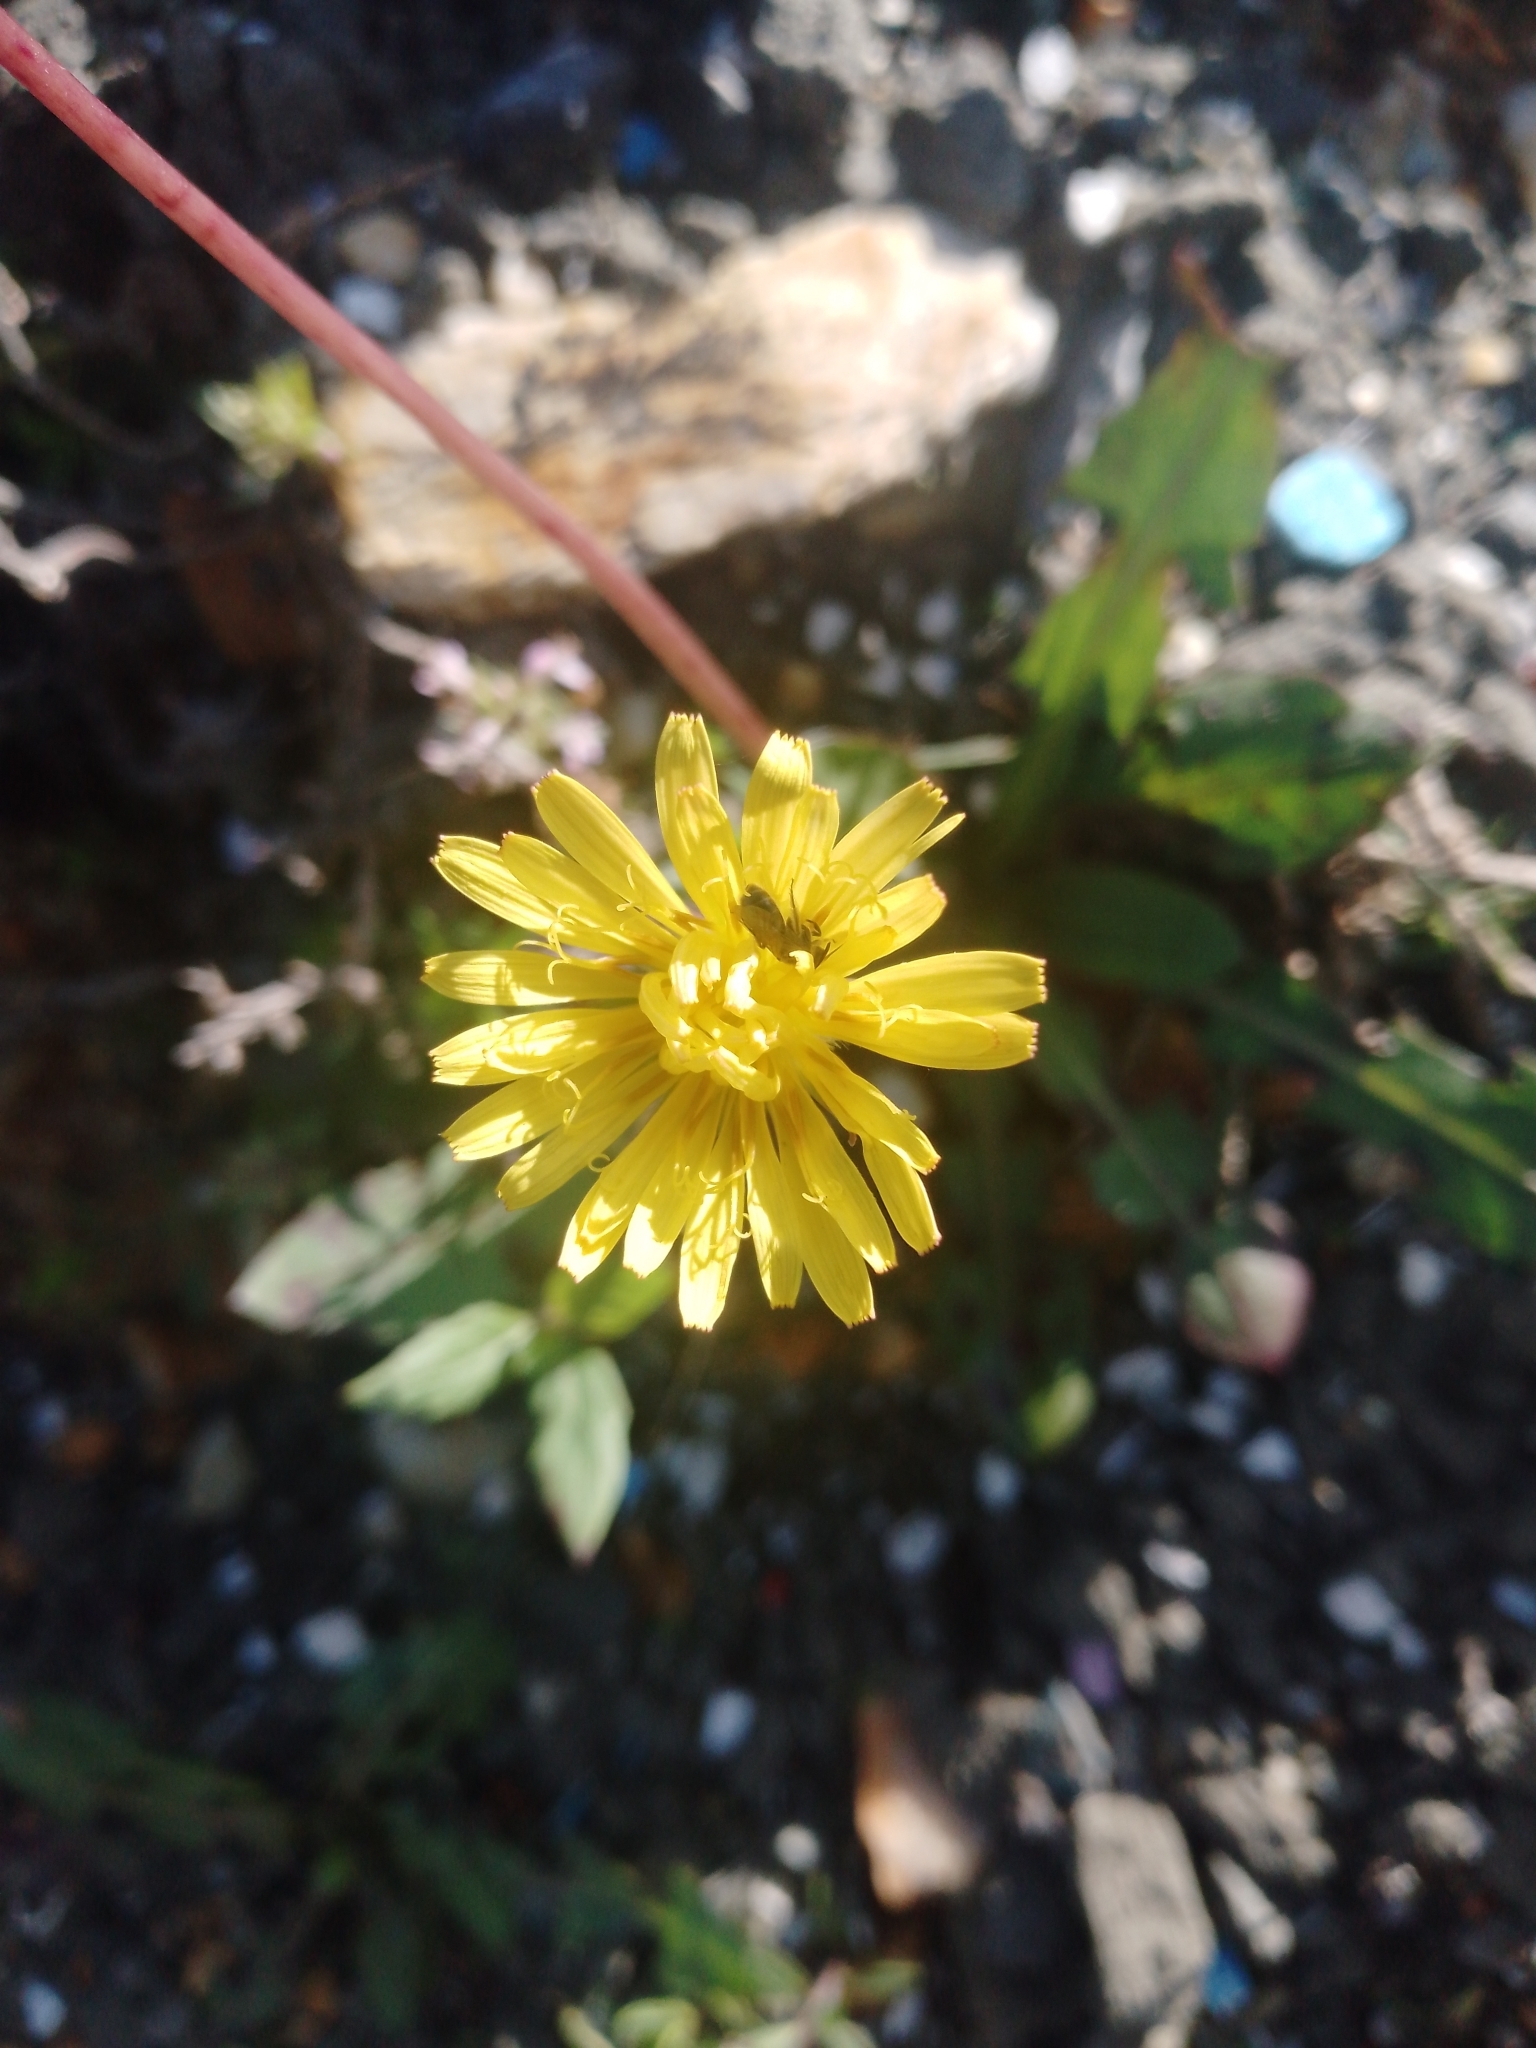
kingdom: Plantae
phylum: Tracheophyta
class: Magnoliopsida
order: Asterales
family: Asteraceae
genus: Taraxacum
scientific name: Taraxacum officinale
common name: Common dandelion
